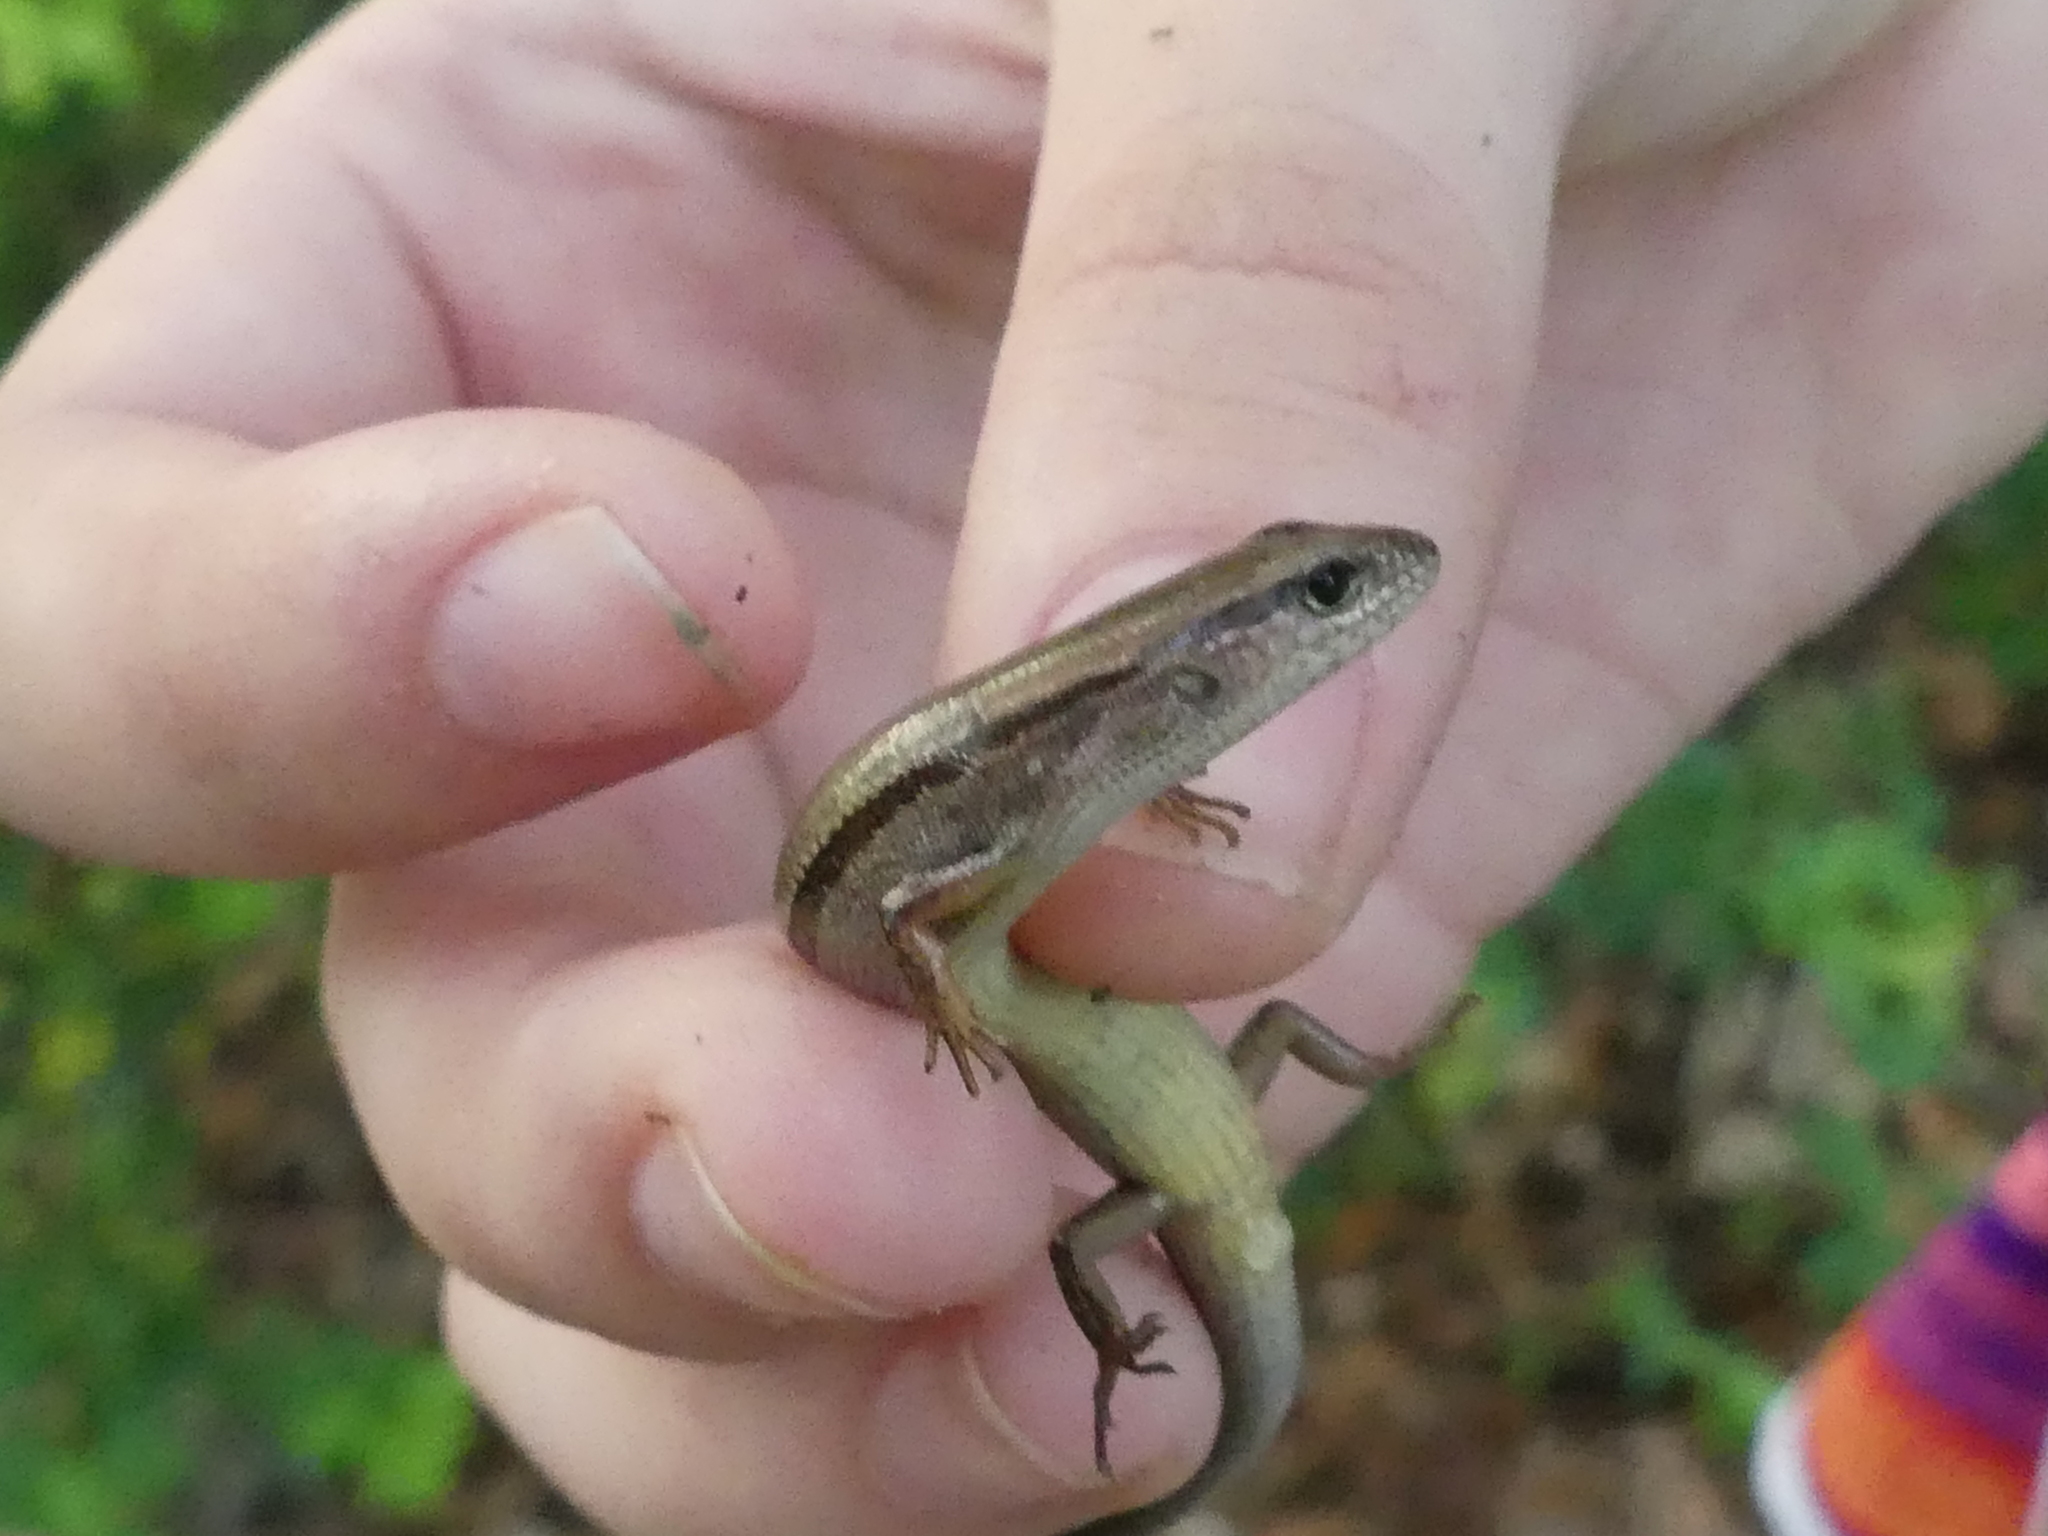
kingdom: Animalia
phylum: Chordata
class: Squamata
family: Scincidae
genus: Scincella
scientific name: Scincella lateralis
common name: Ground skink
